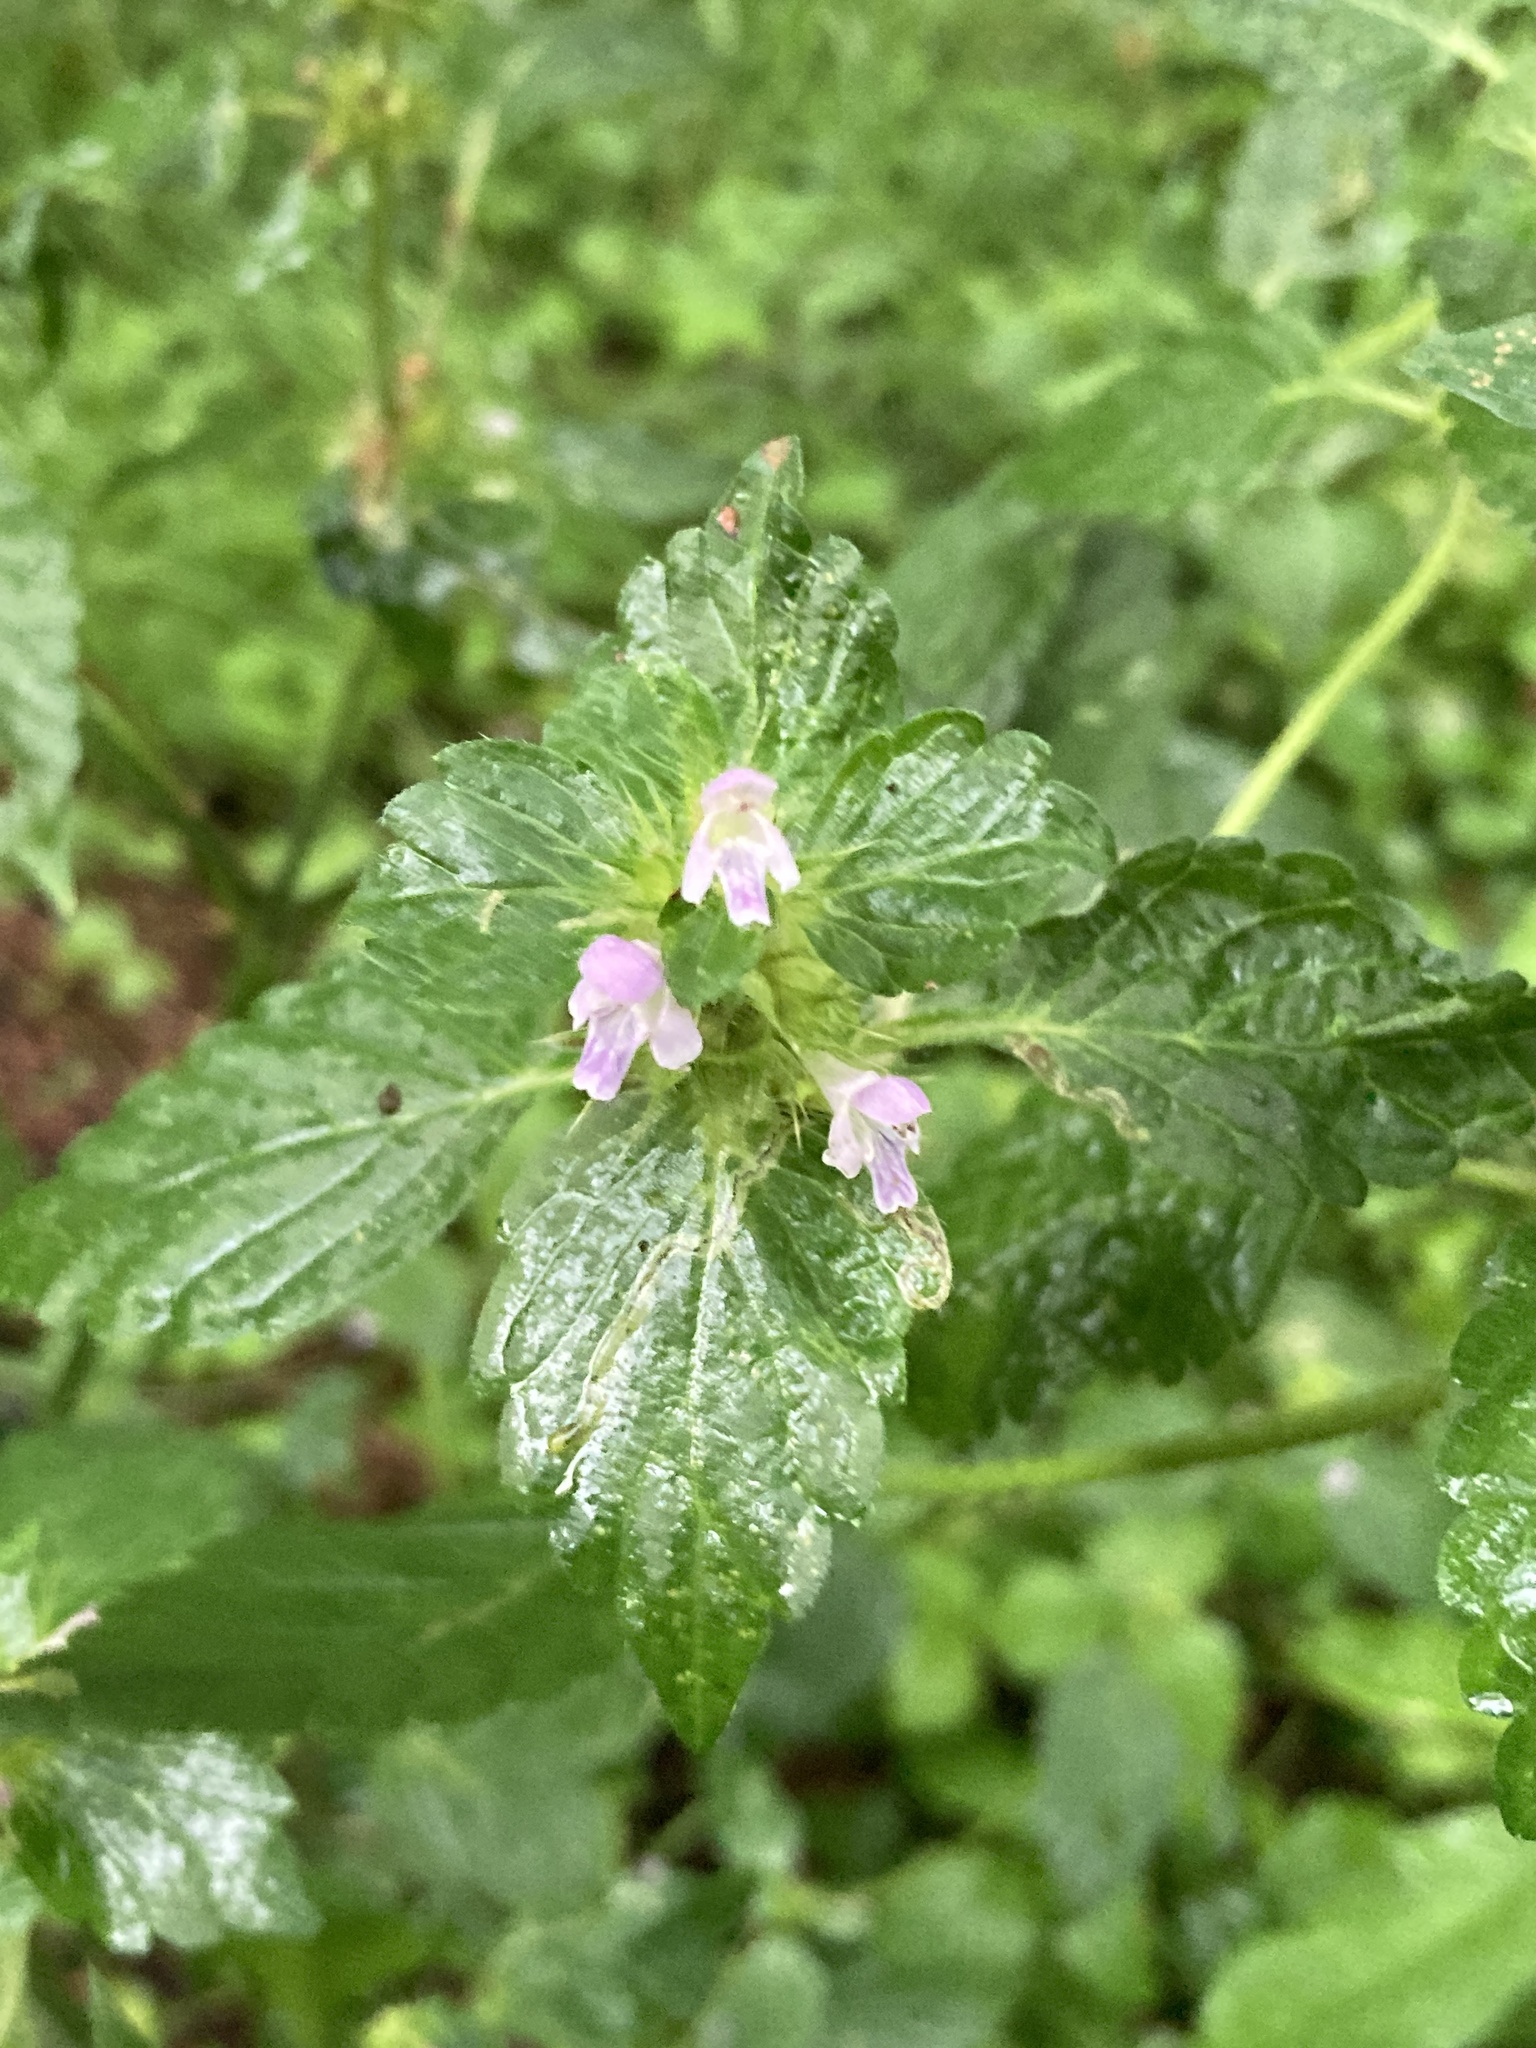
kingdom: Plantae
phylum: Tracheophyta
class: Magnoliopsida
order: Lamiales
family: Lamiaceae
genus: Galeopsis
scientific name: Galeopsis bifida
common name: Bifid hemp-nettle
